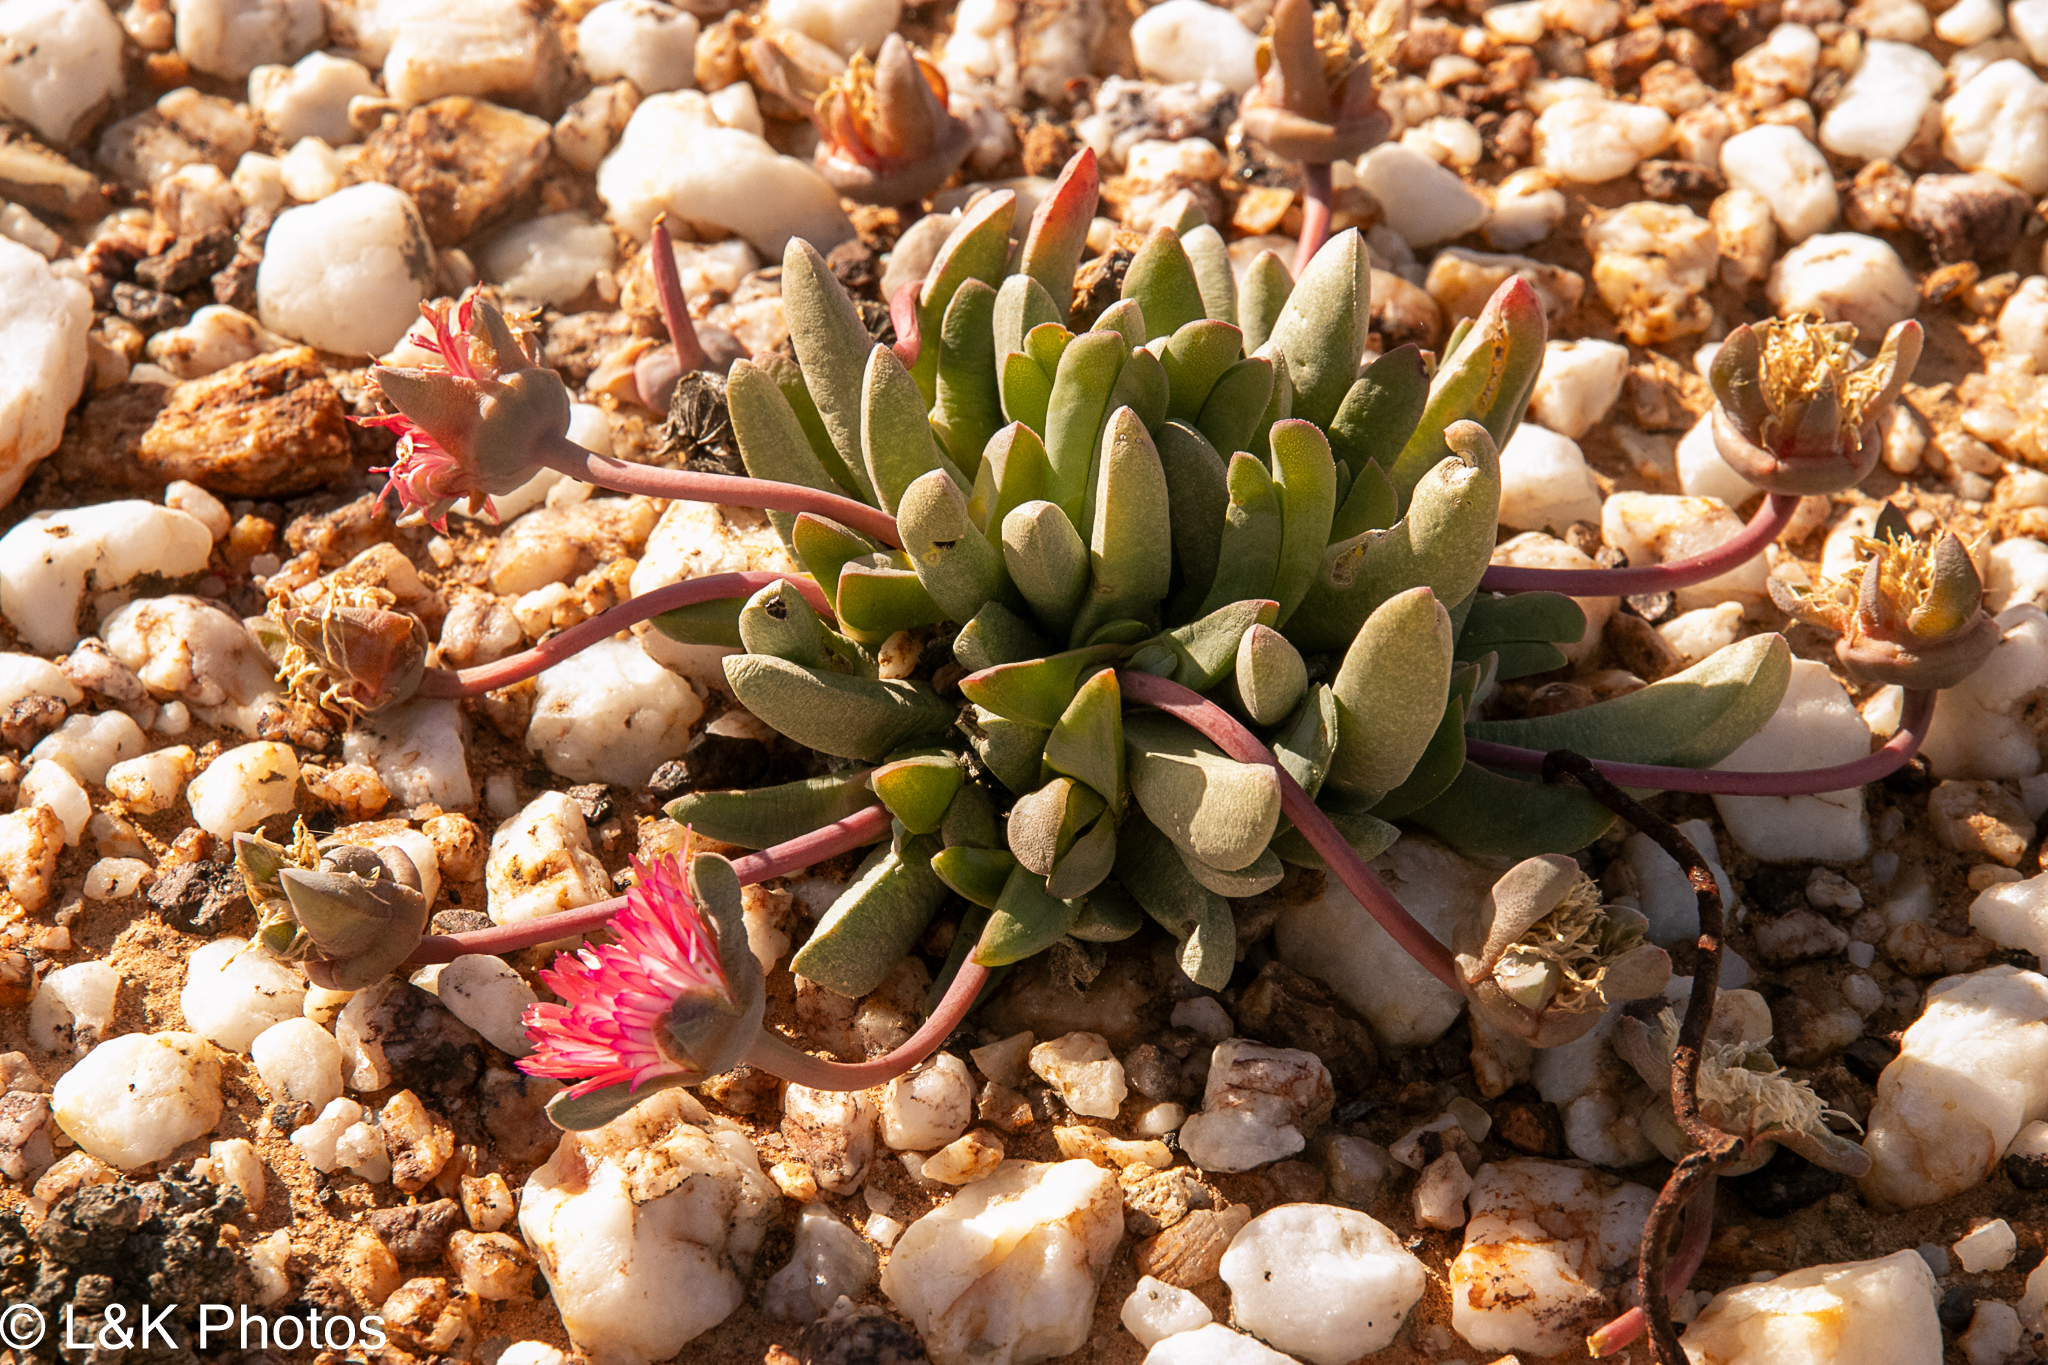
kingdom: Plantae
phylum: Tracheophyta
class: Magnoliopsida
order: Caryophyllales
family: Aizoaceae
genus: Cephalophyllum
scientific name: Cephalophyllum spissum
